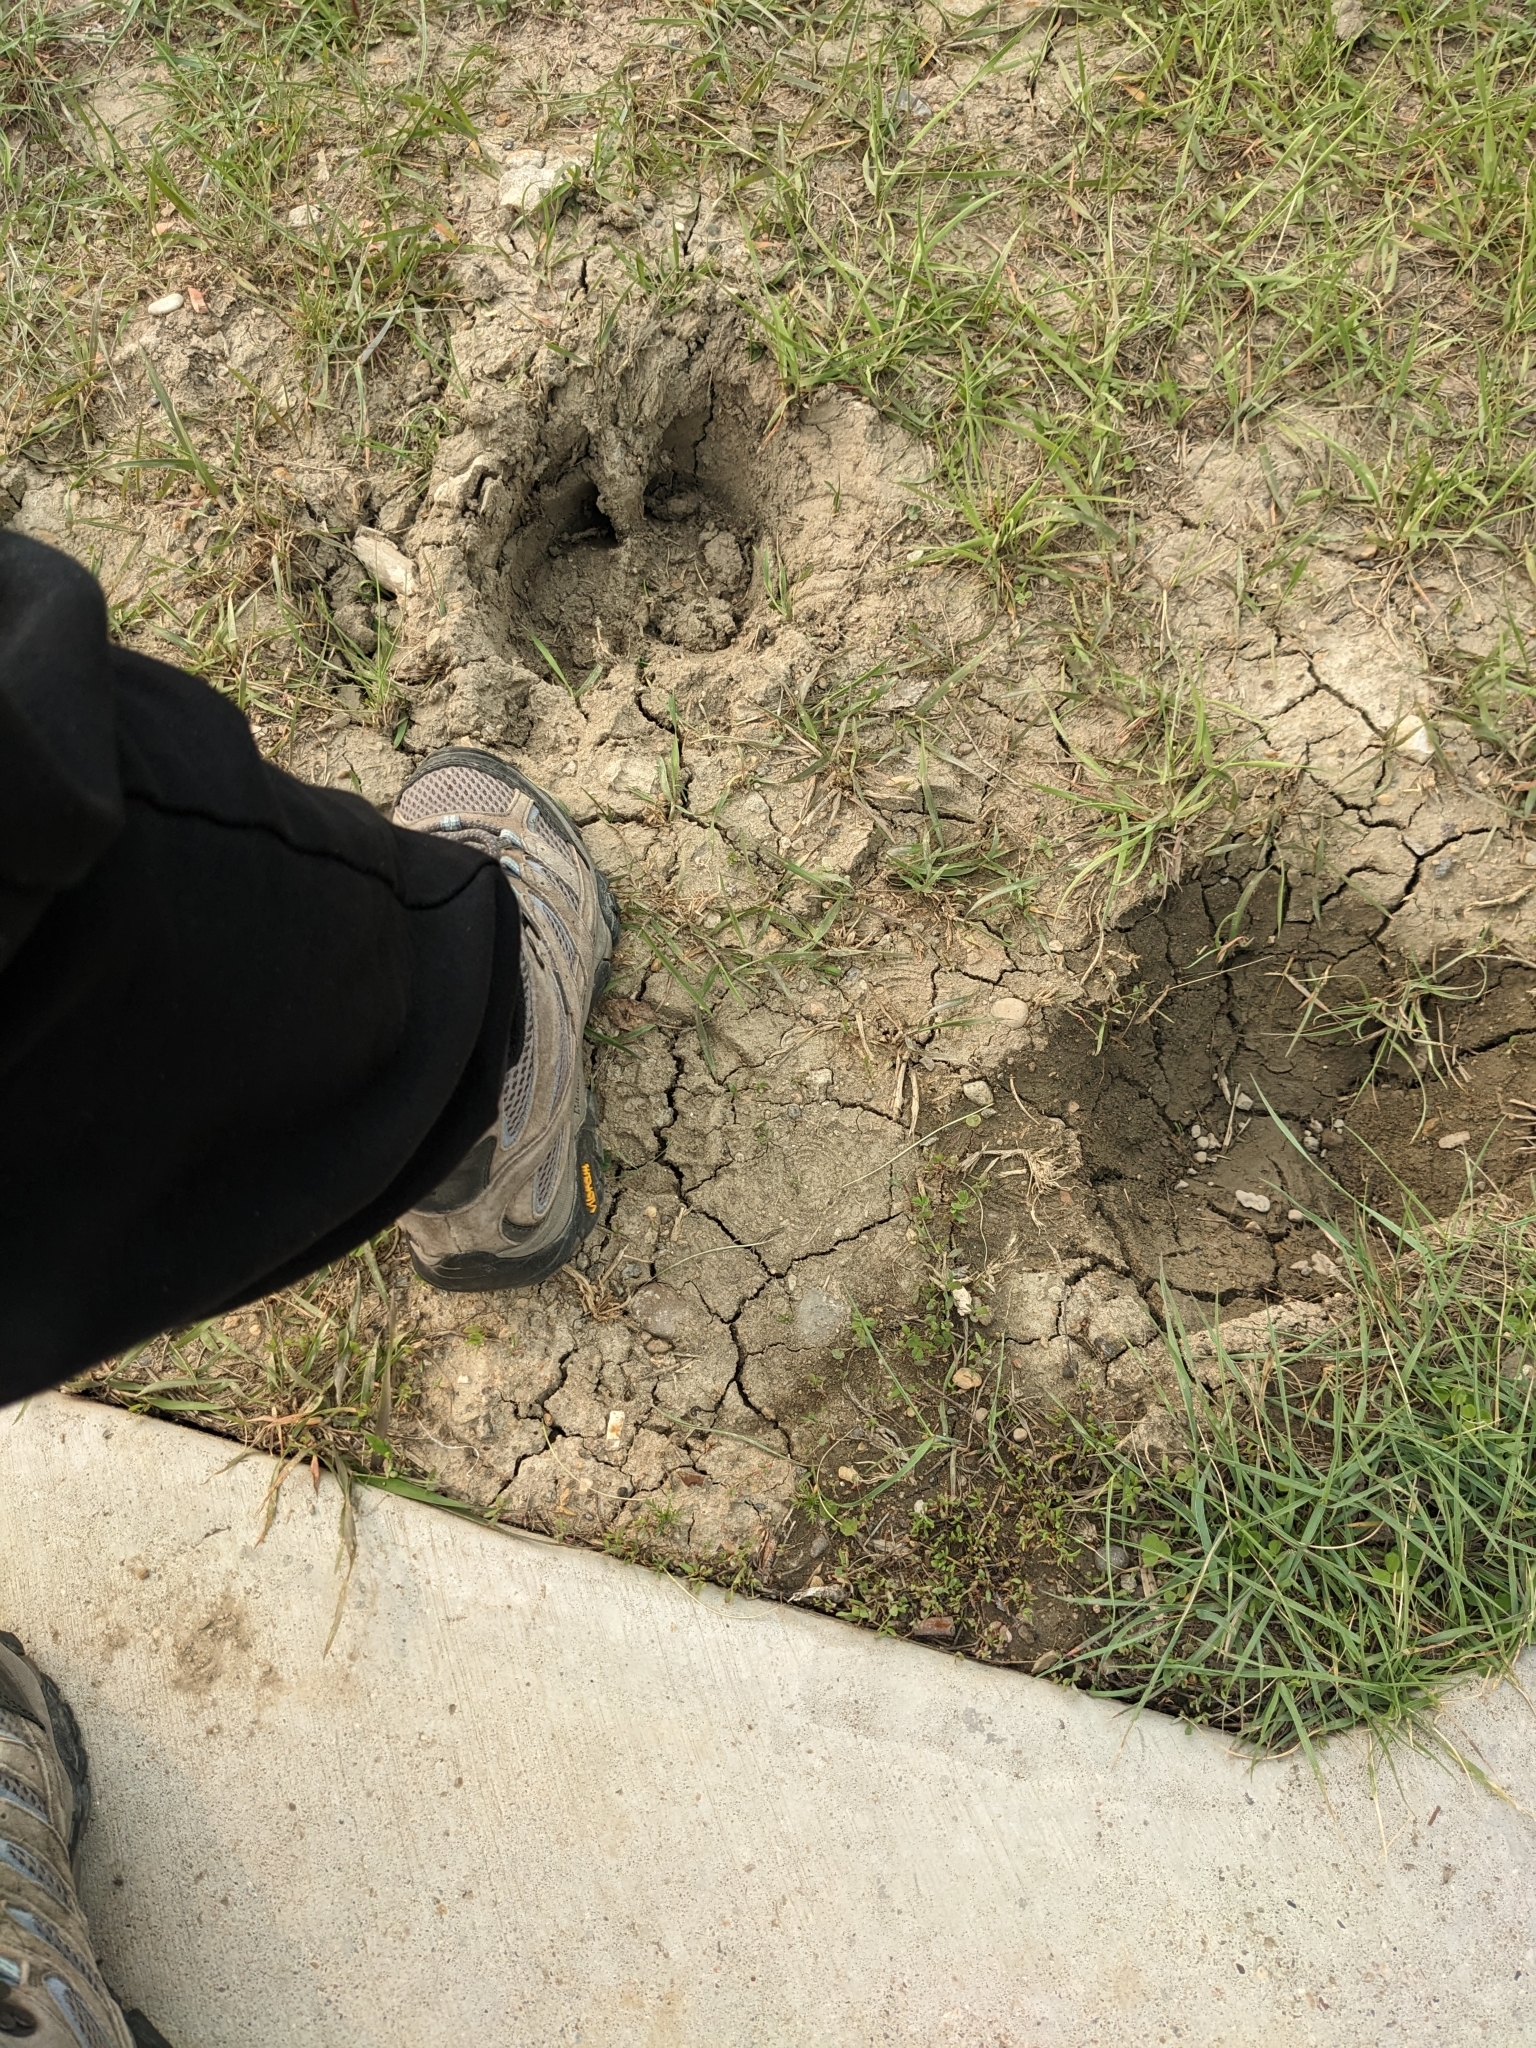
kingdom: Animalia
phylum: Chordata
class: Mammalia
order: Artiodactyla
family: Bovidae
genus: Bison
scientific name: Bison bison
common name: American bison
